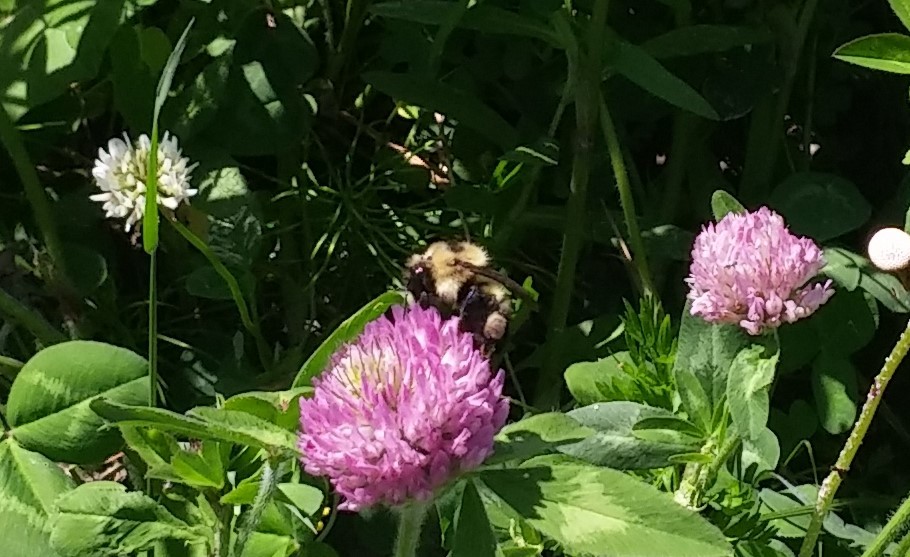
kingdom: Animalia
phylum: Arthropoda
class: Insecta
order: Hymenoptera
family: Apidae
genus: Bombus
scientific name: Bombus rufocinctus
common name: Red-belted bumble bee
